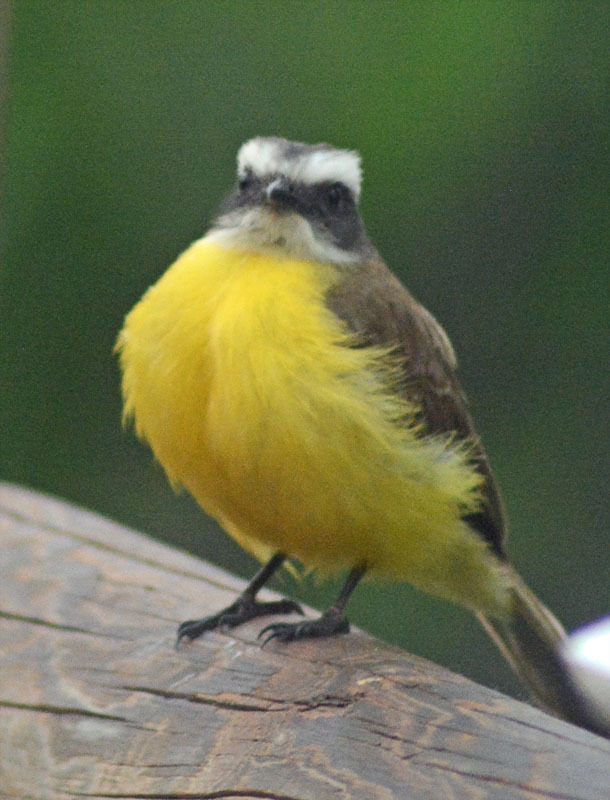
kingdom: Animalia
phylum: Chordata
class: Aves
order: Passeriformes
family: Tyrannidae
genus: Myiozetetes
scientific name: Myiozetetes similis
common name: Social flycatcher
